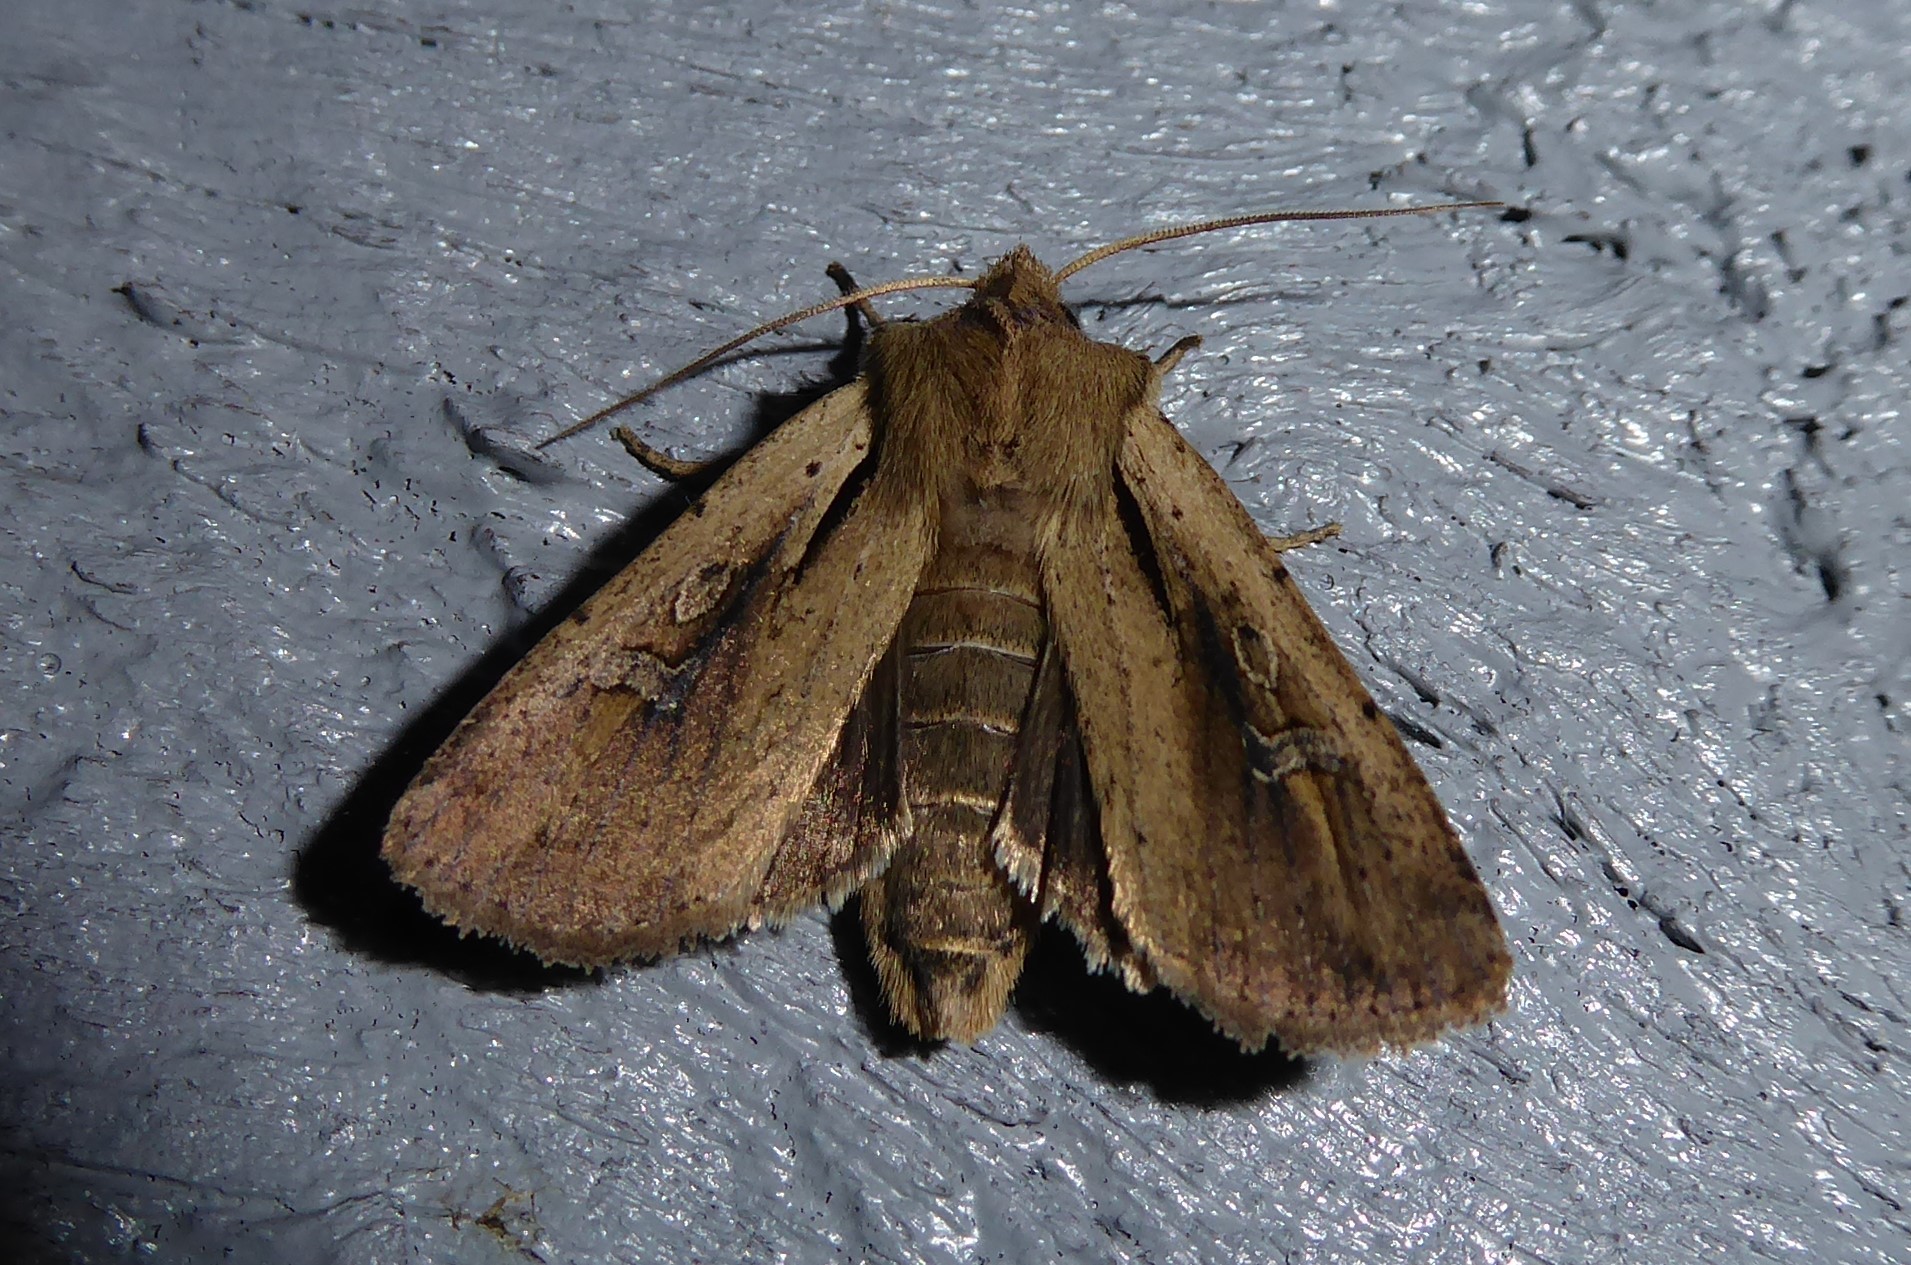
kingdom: Animalia
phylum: Arthropoda
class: Insecta
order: Lepidoptera
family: Noctuidae
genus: Ichneutica
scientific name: Ichneutica atristriga
